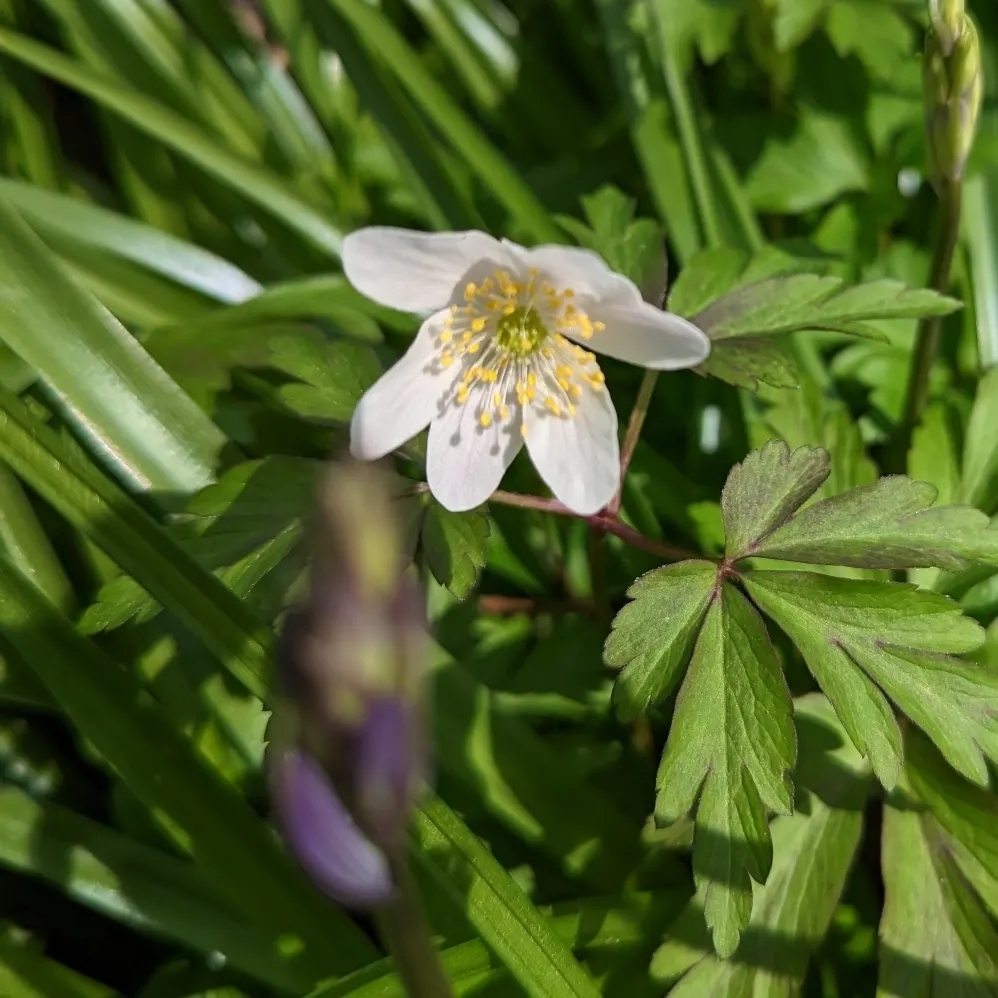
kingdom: Plantae
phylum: Tracheophyta
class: Magnoliopsida
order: Ranunculales
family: Ranunculaceae
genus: Anemone
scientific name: Anemone nemorosa
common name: Wood anemone
